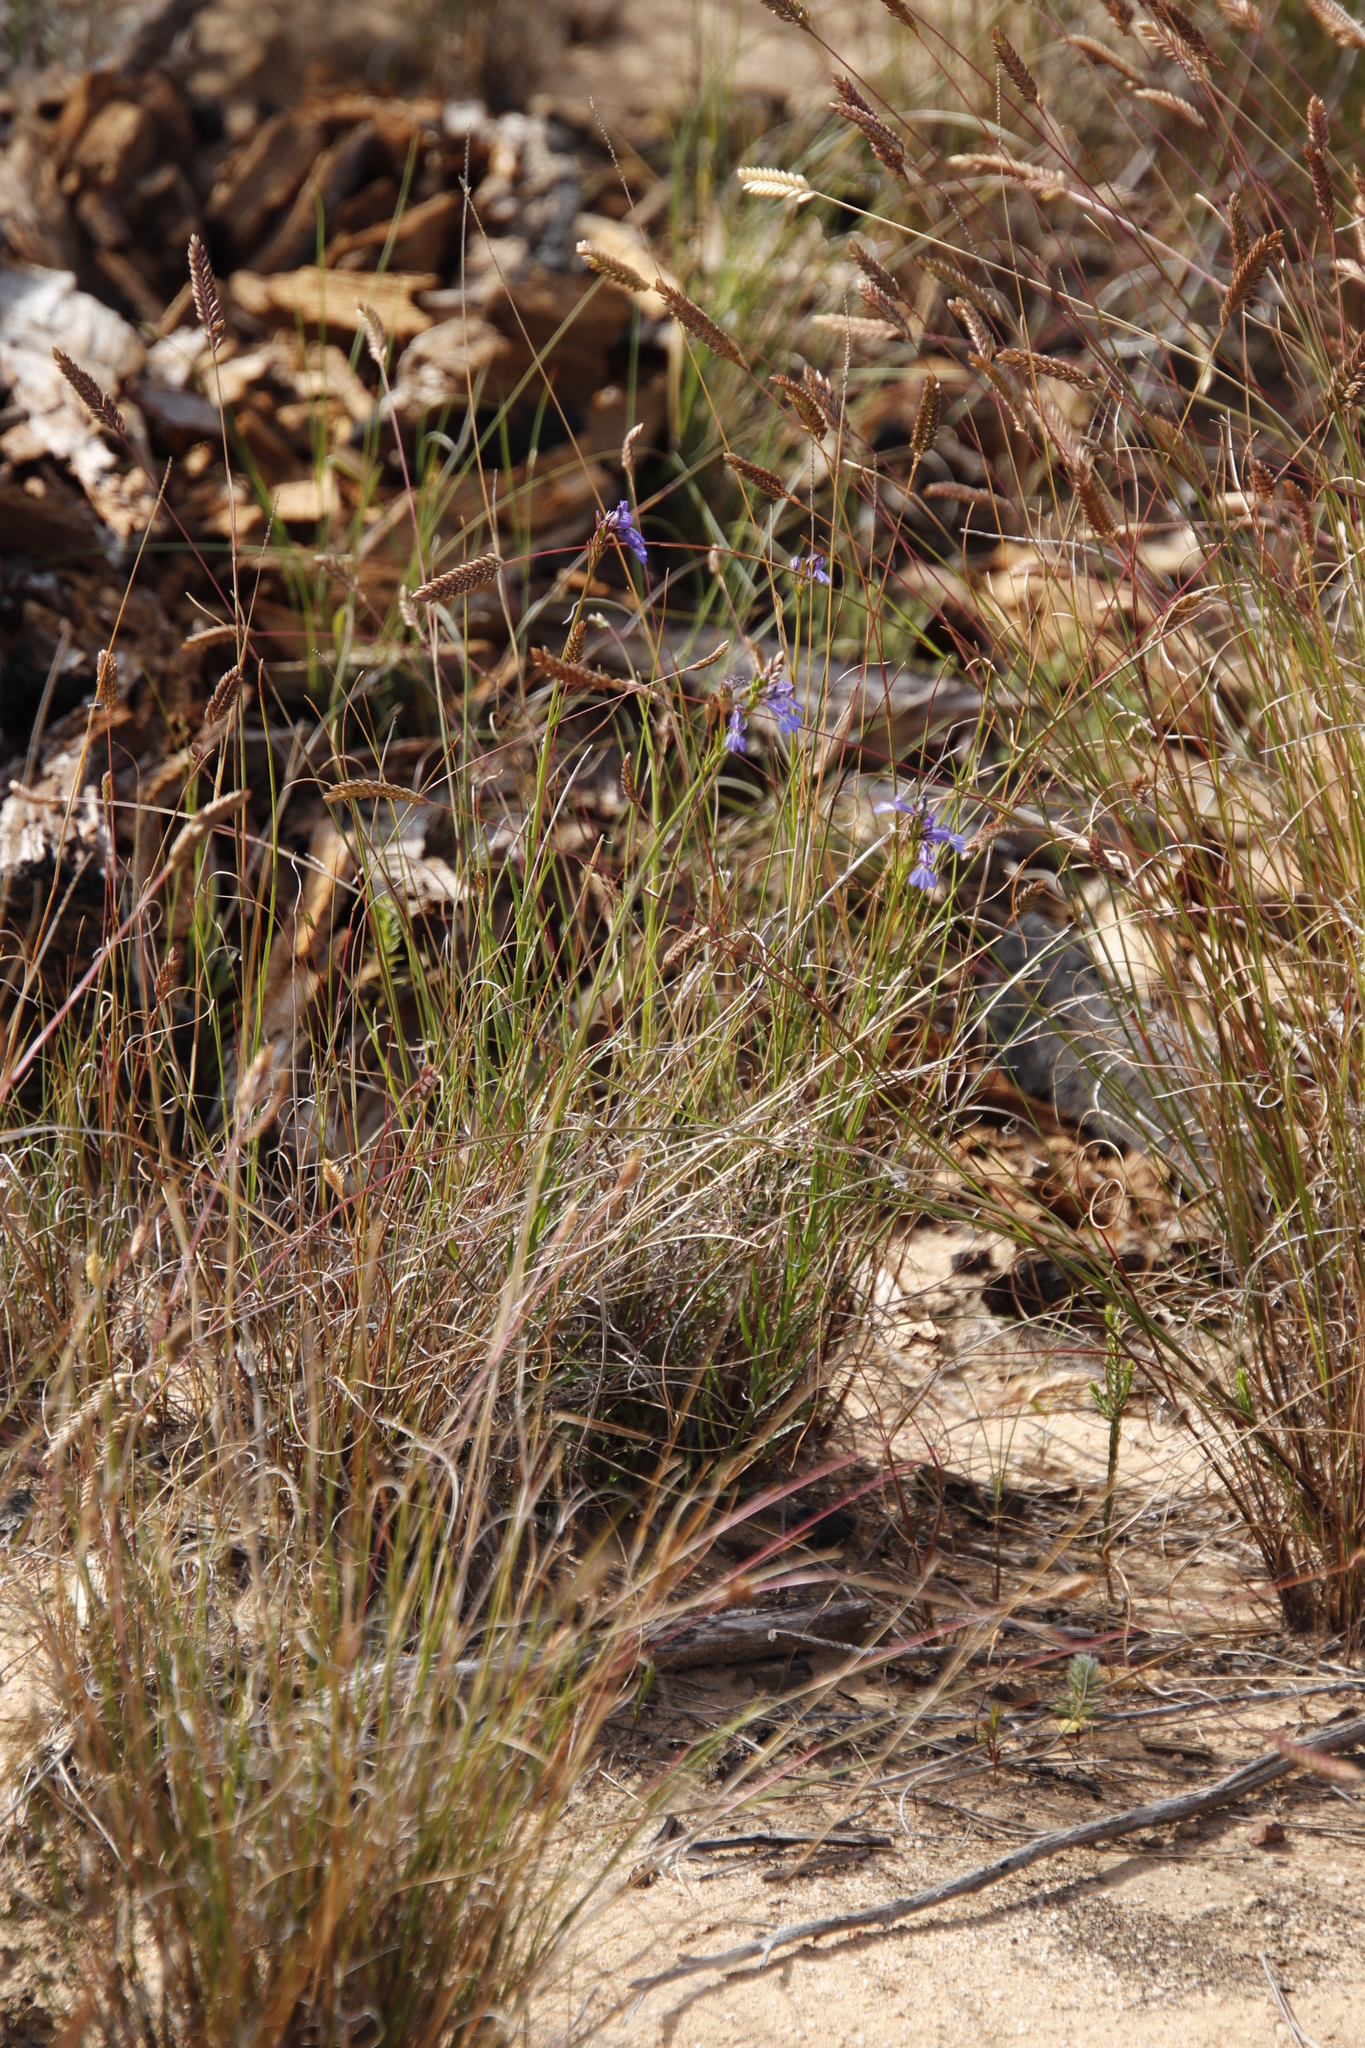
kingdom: Plantae
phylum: Tracheophyta
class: Magnoliopsida
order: Asterales
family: Campanulaceae
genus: Lobelia
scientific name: Lobelia comosa
